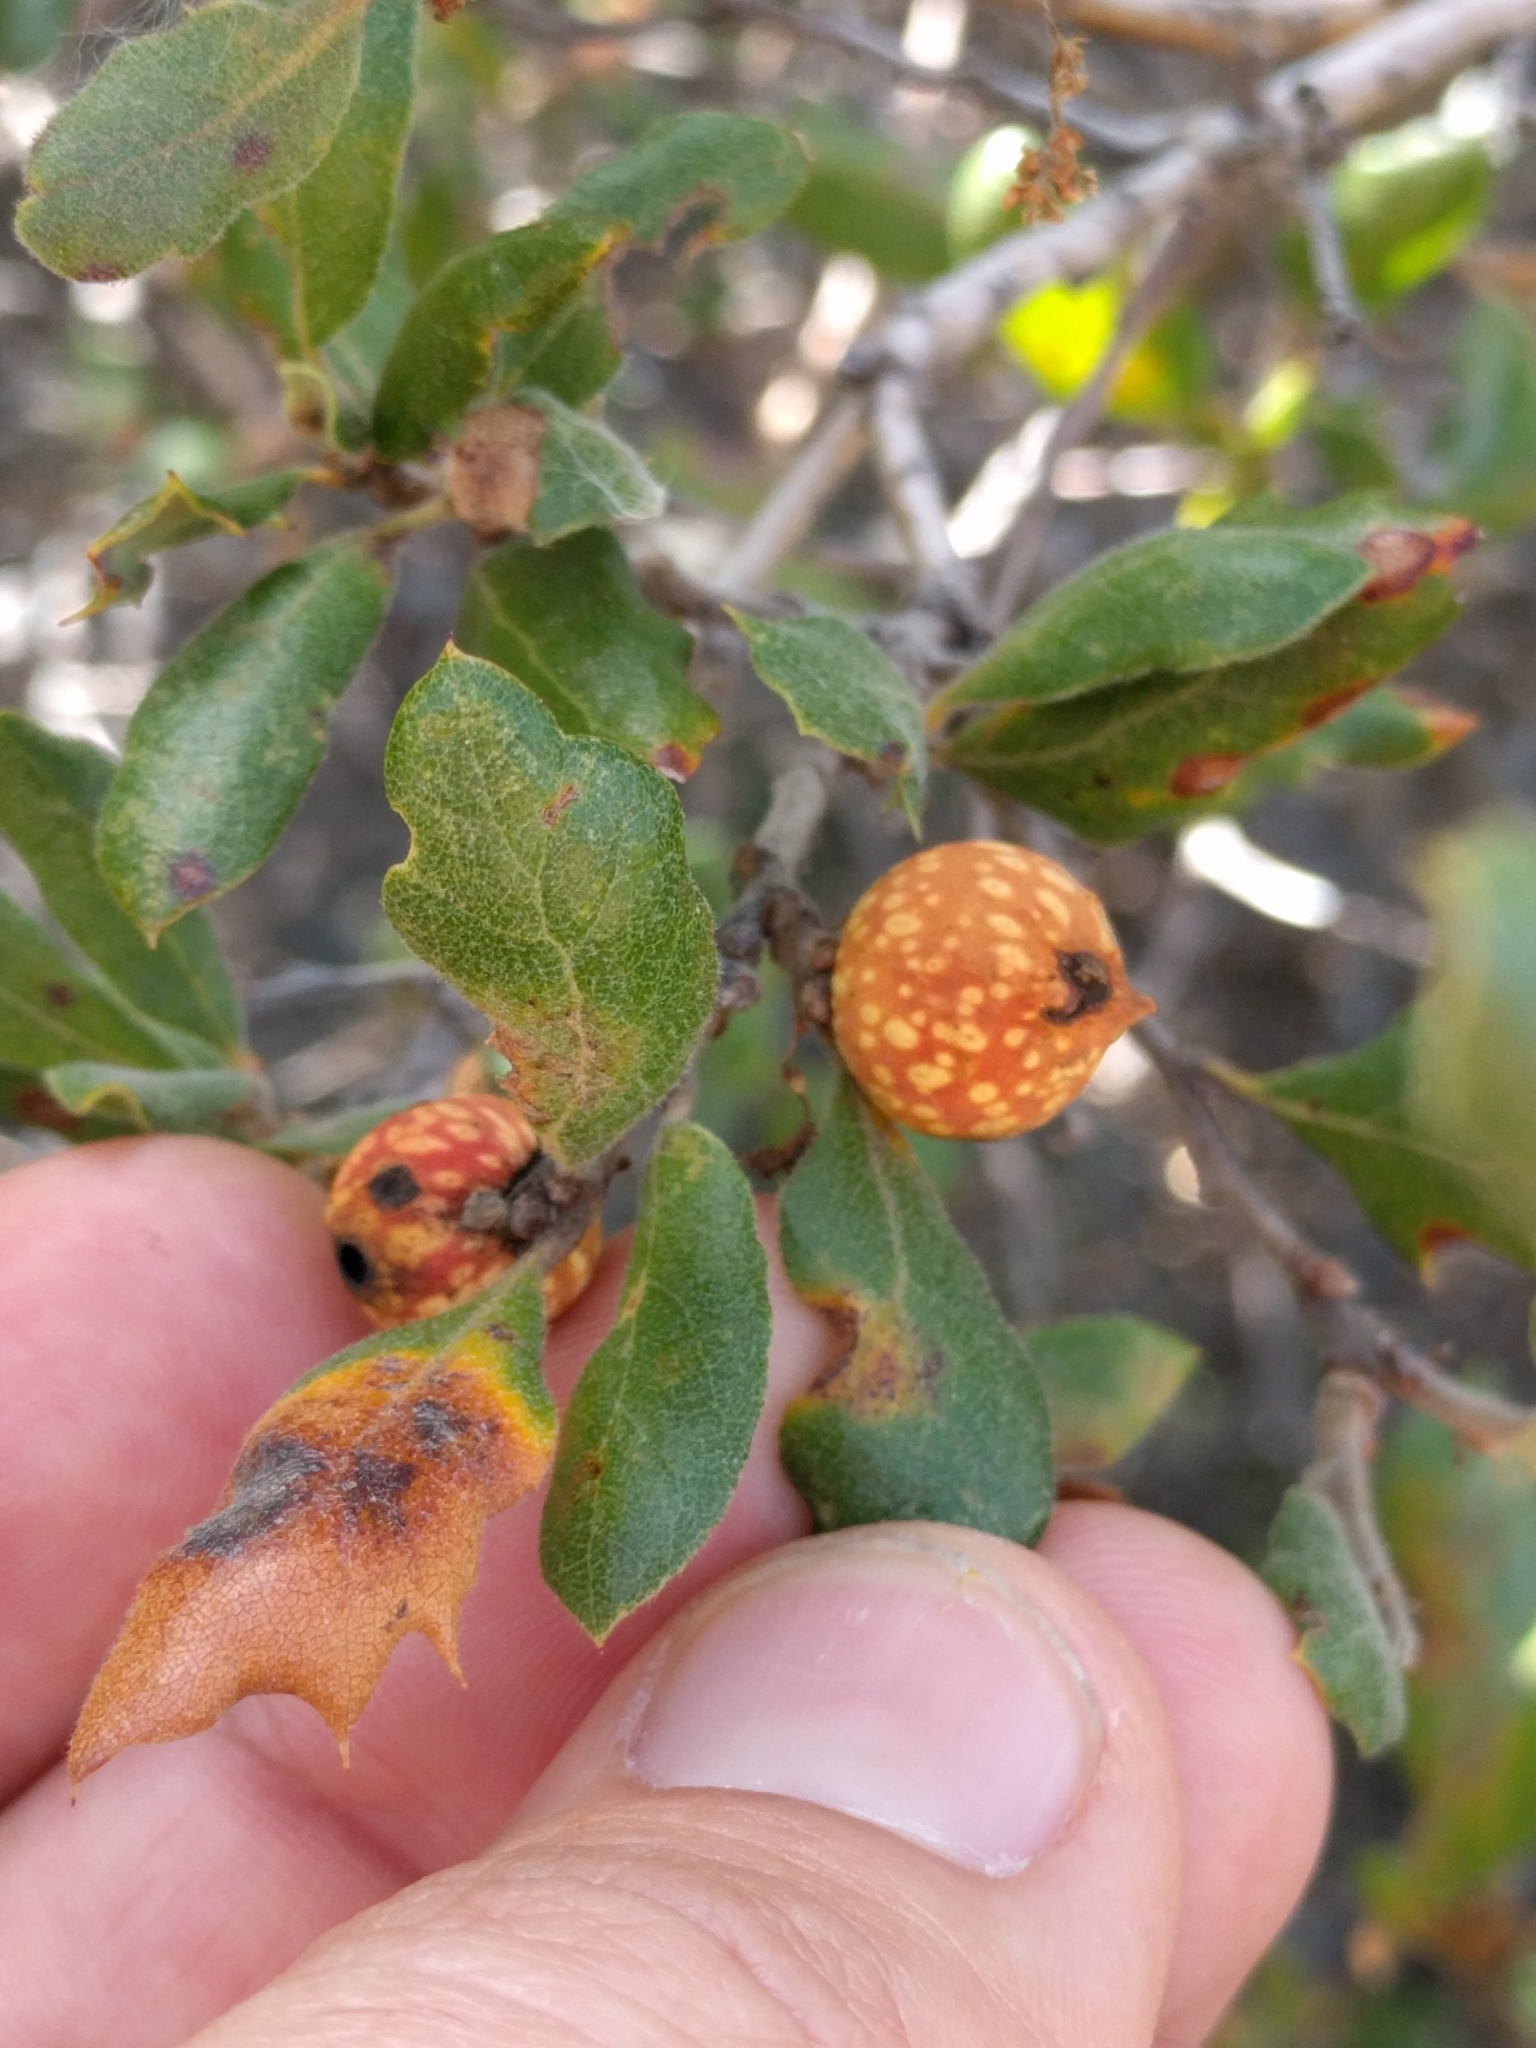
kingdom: Animalia
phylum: Arthropoda
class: Insecta
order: Hymenoptera
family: Cynipidae
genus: Burnettweldia
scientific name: Burnettweldia
